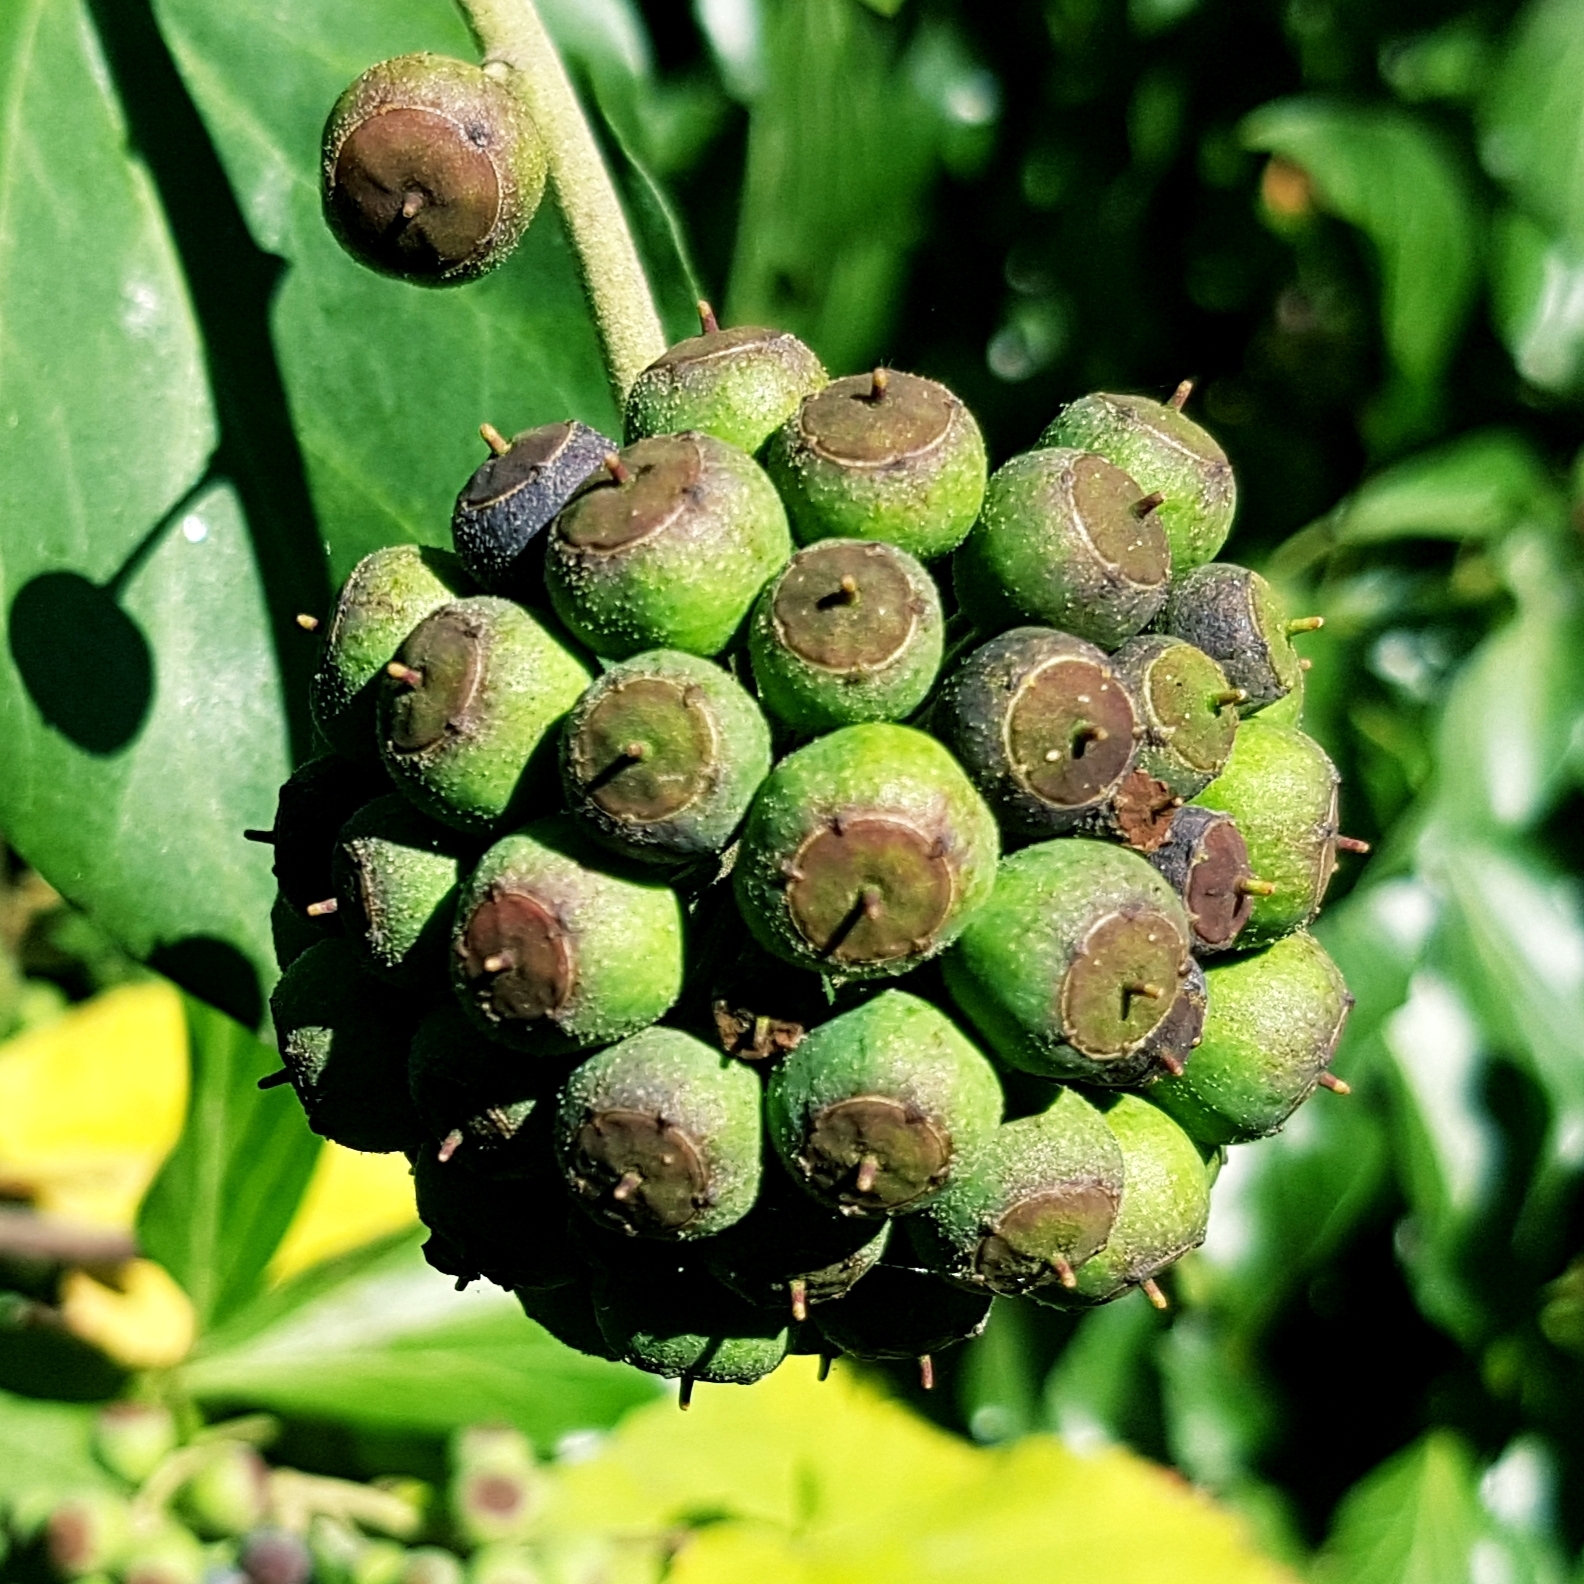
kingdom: Plantae
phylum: Tracheophyta
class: Magnoliopsida
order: Apiales
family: Araliaceae
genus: Hedera
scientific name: Hedera helix
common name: Ivy
